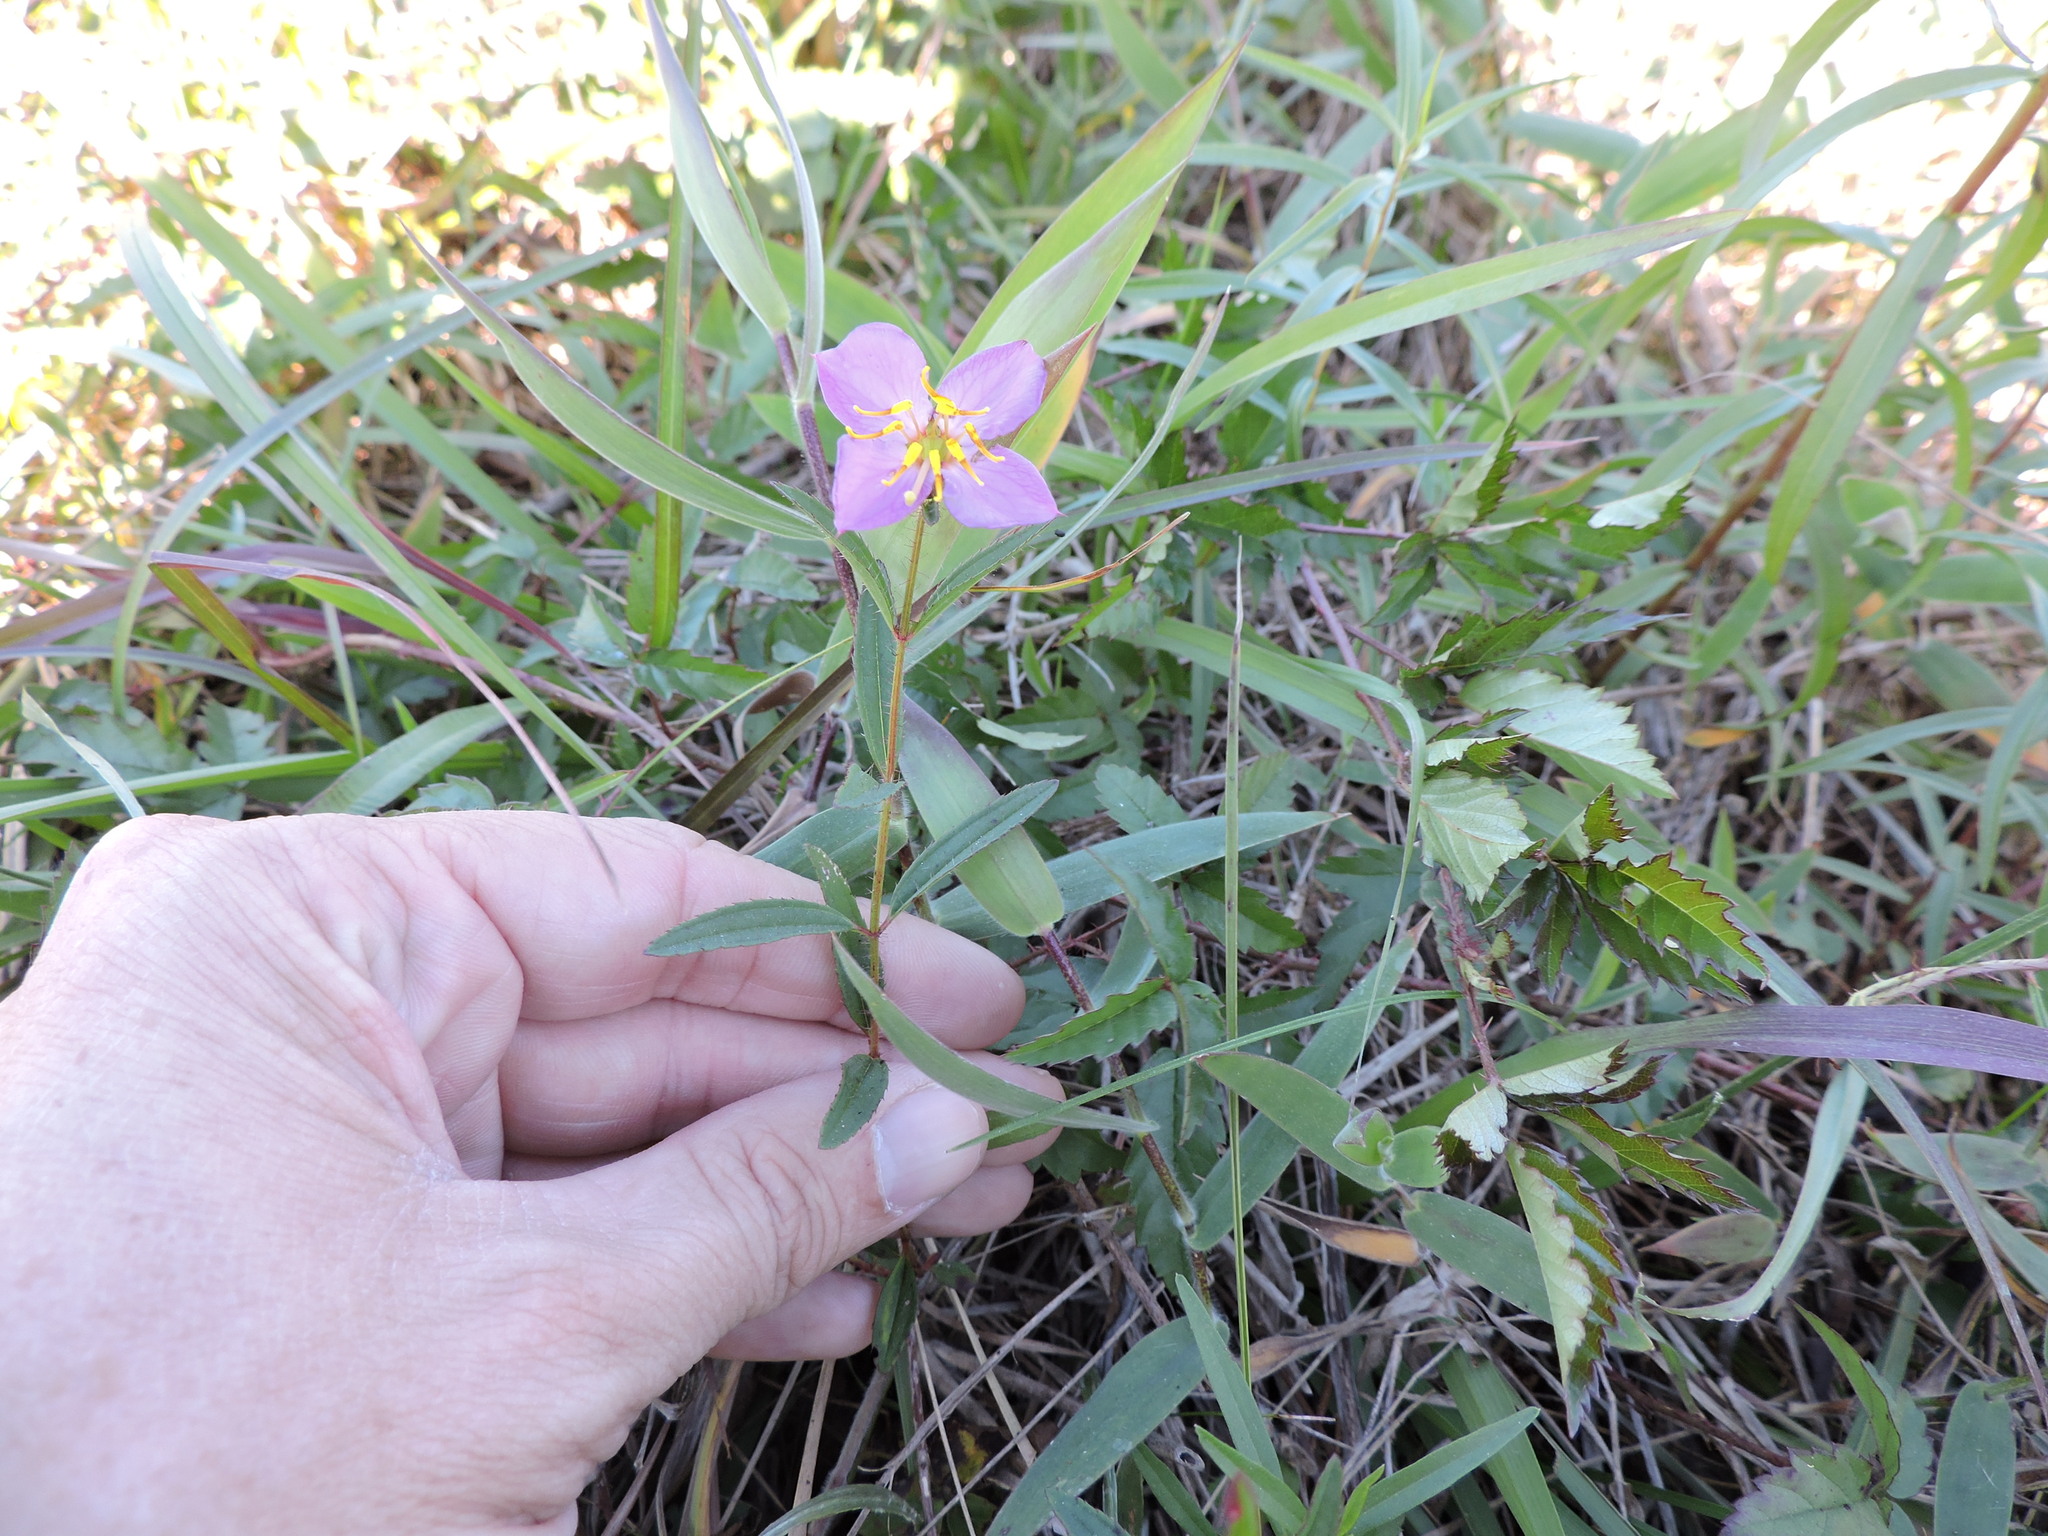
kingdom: Plantae
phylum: Tracheophyta
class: Magnoliopsida
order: Myrtales
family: Melastomataceae
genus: Rhexia
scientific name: Rhexia mariana
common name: Dull meadow-pitcher
